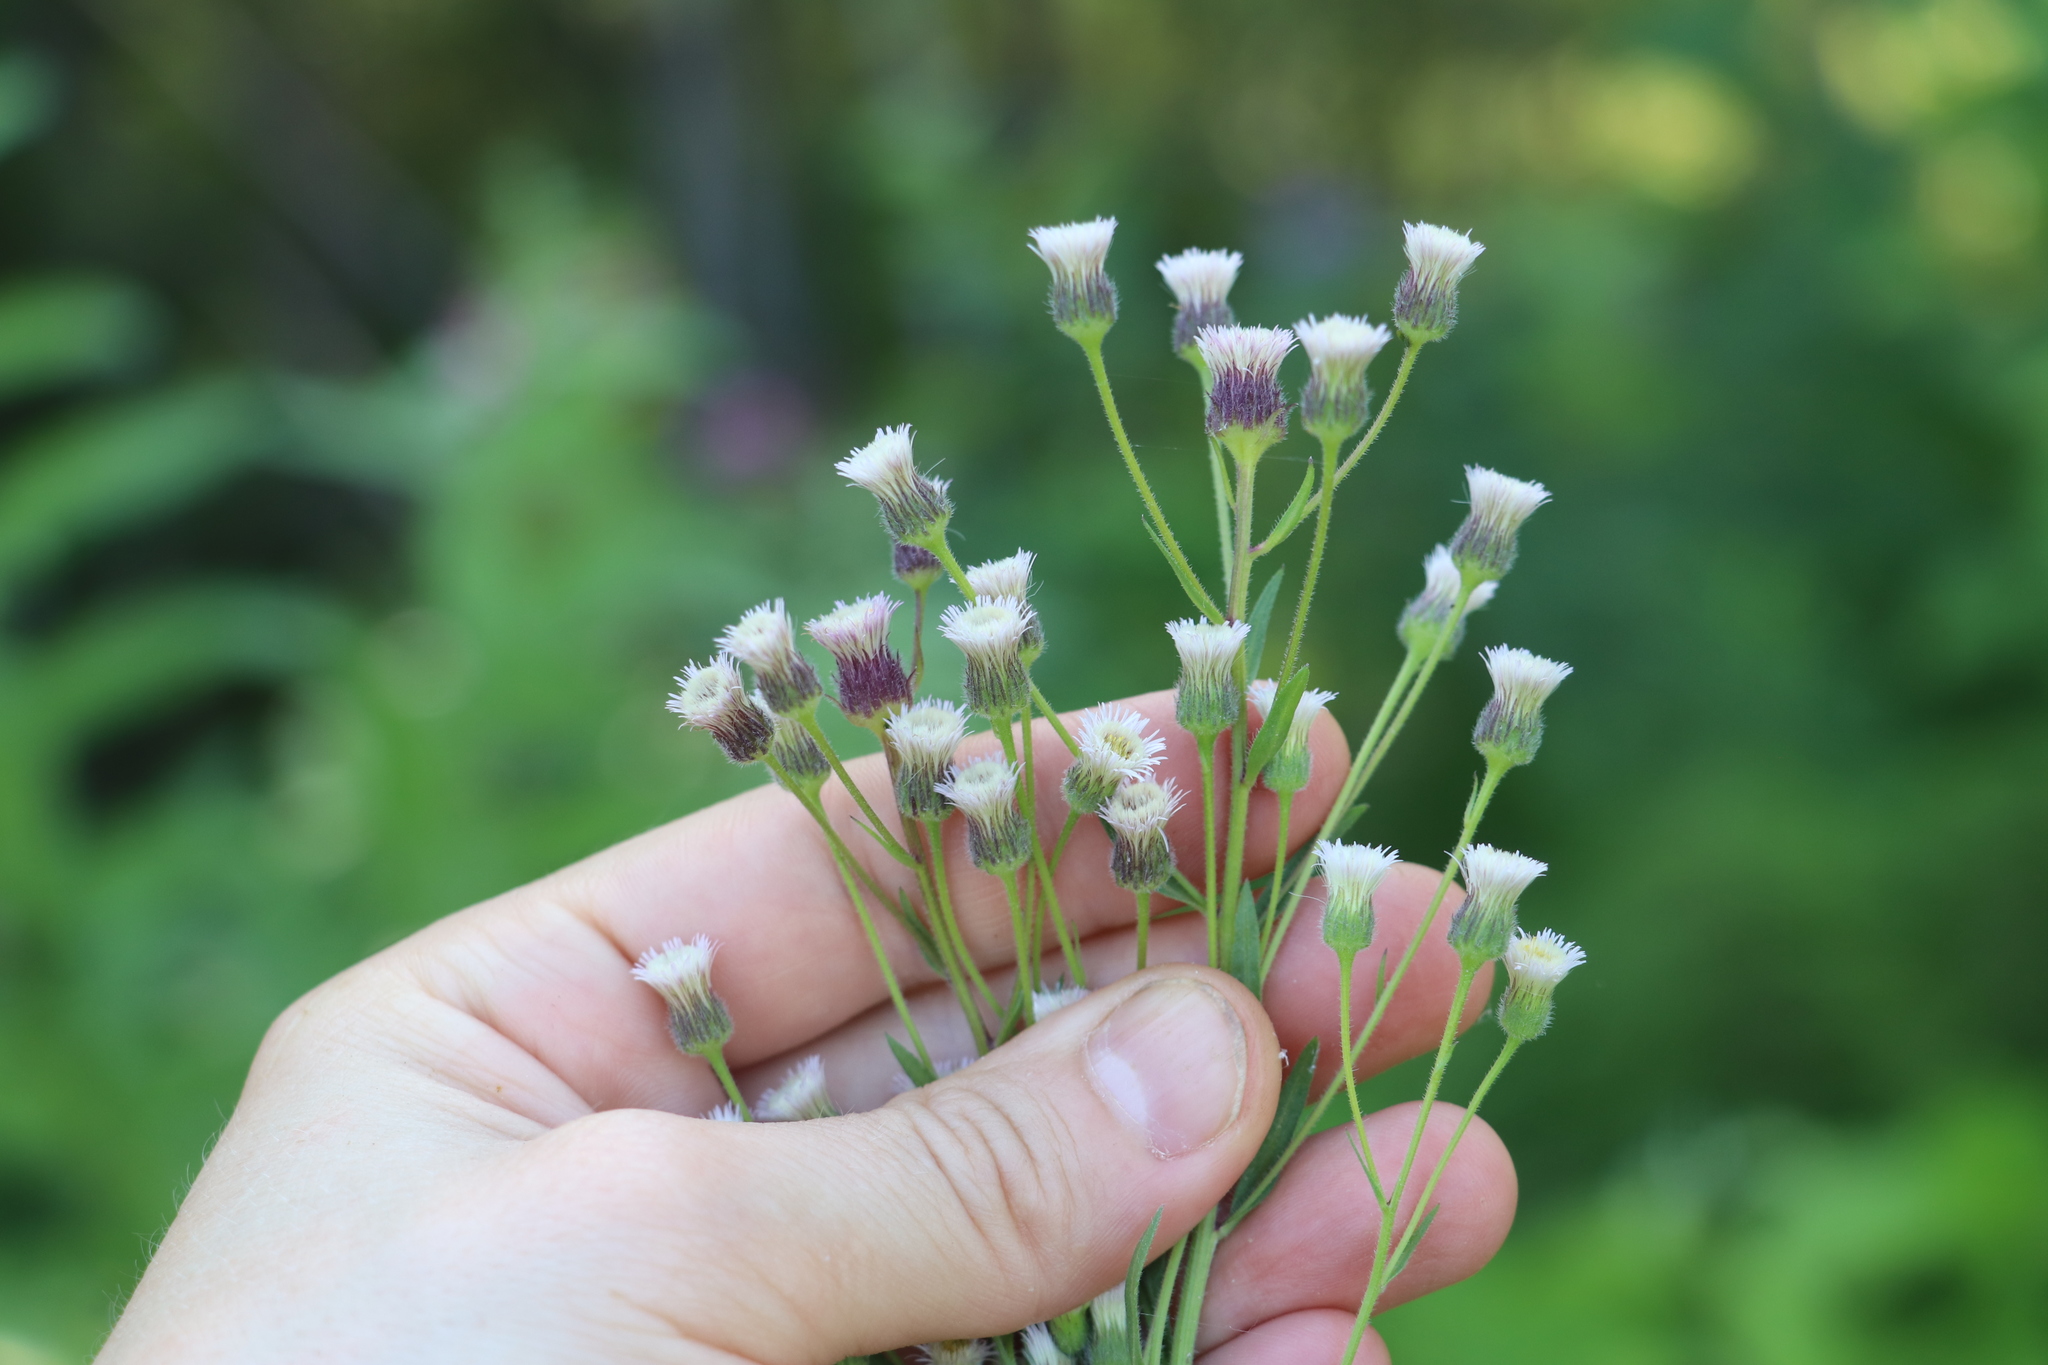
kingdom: Plantae
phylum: Tracheophyta
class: Magnoliopsida
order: Asterales
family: Asteraceae
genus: Erigeron
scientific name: Erigeron acris
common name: Blue fleabane
